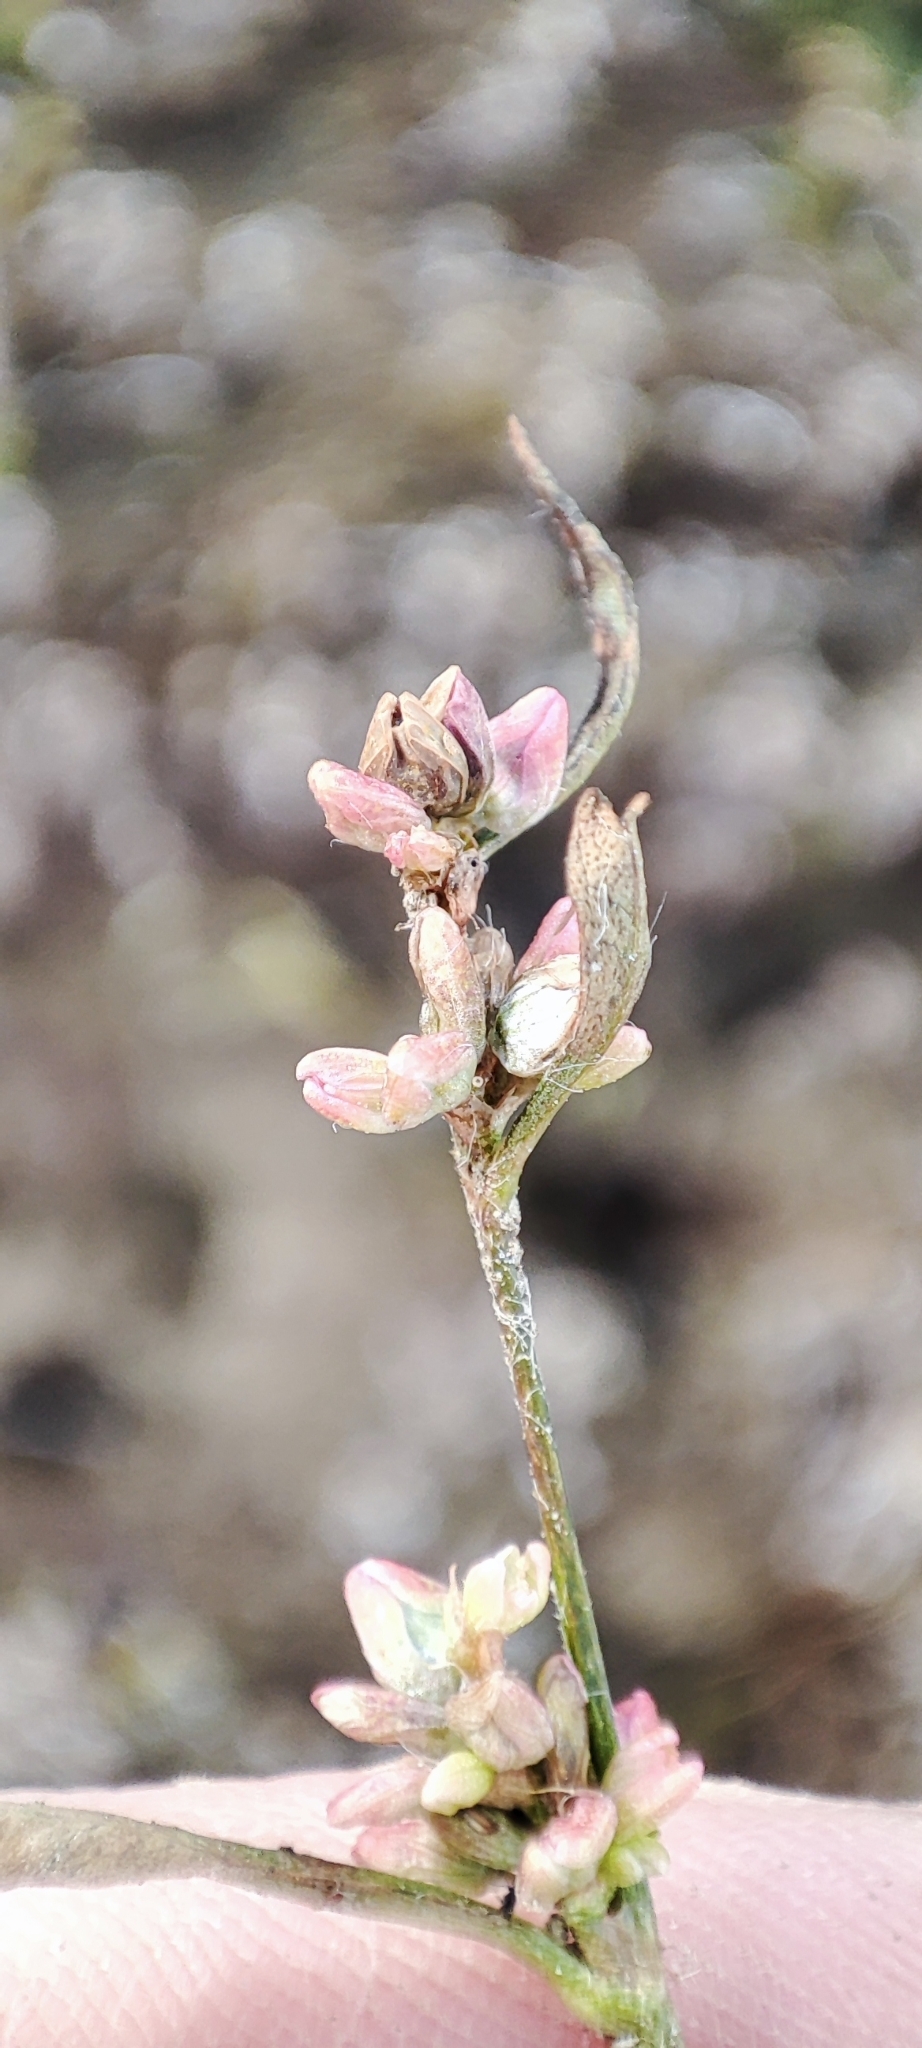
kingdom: Plantae
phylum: Tracheophyta
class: Magnoliopsida
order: Caryophyllales
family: Polygonaceae
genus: Persicaria
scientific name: Persicaria
